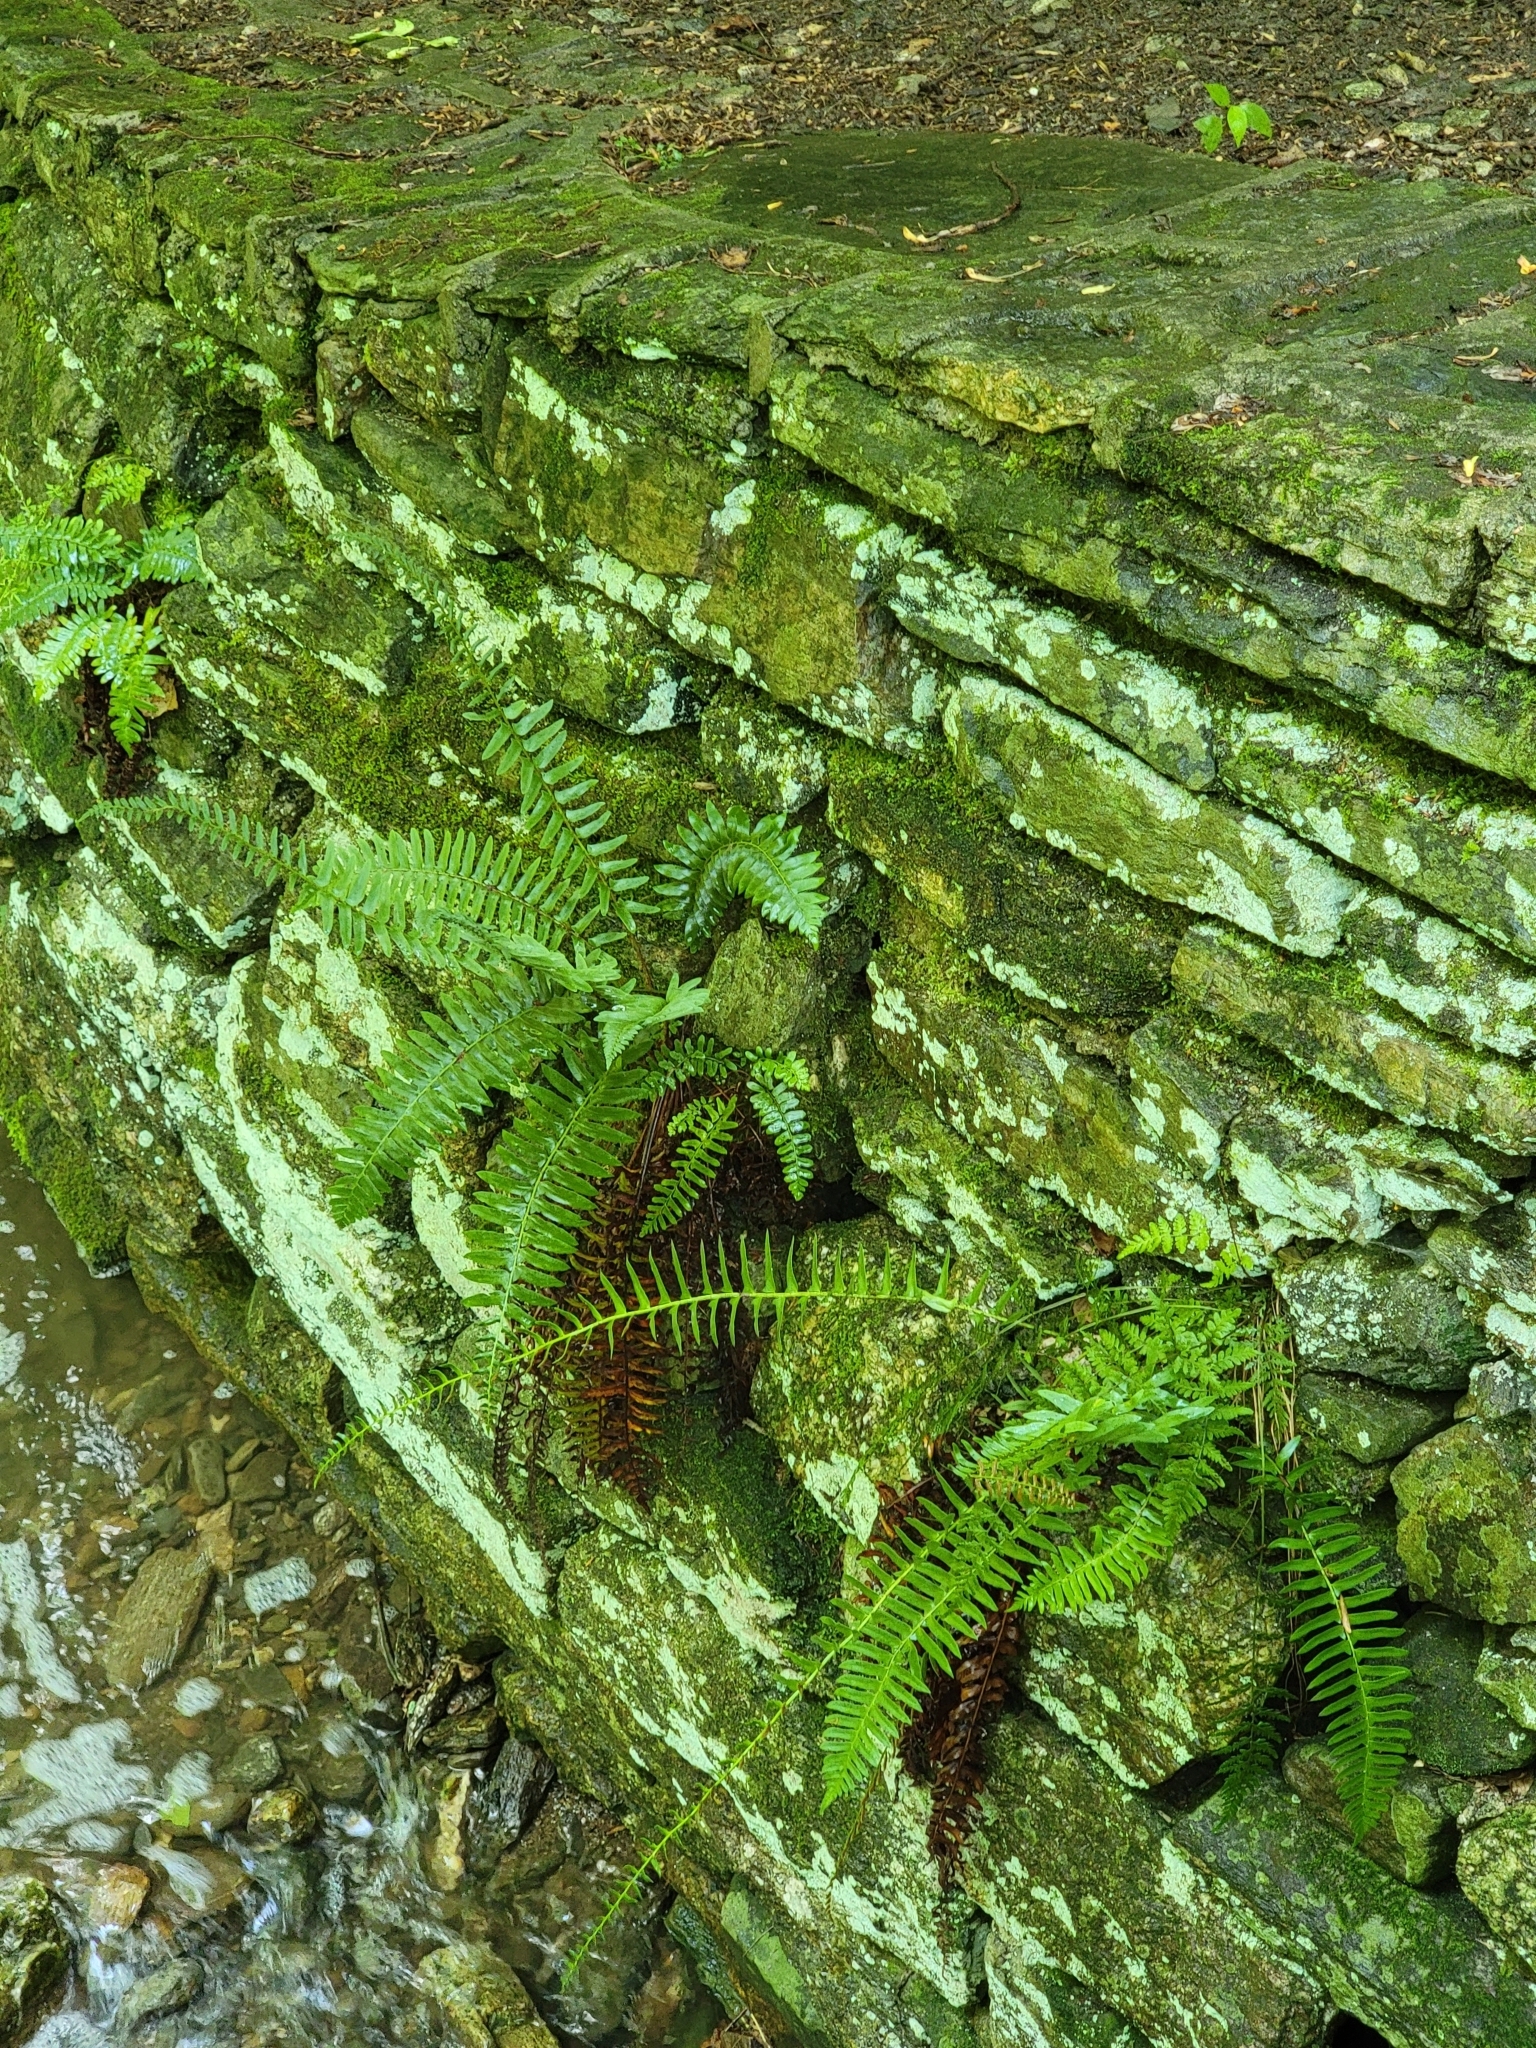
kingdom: Plantae
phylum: Tracheophyta
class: Polypodiopsida
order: Polypodiales
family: Dryopteridaceae
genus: Polystichum
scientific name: Polystichum acrostichoides
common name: Christmas fern
